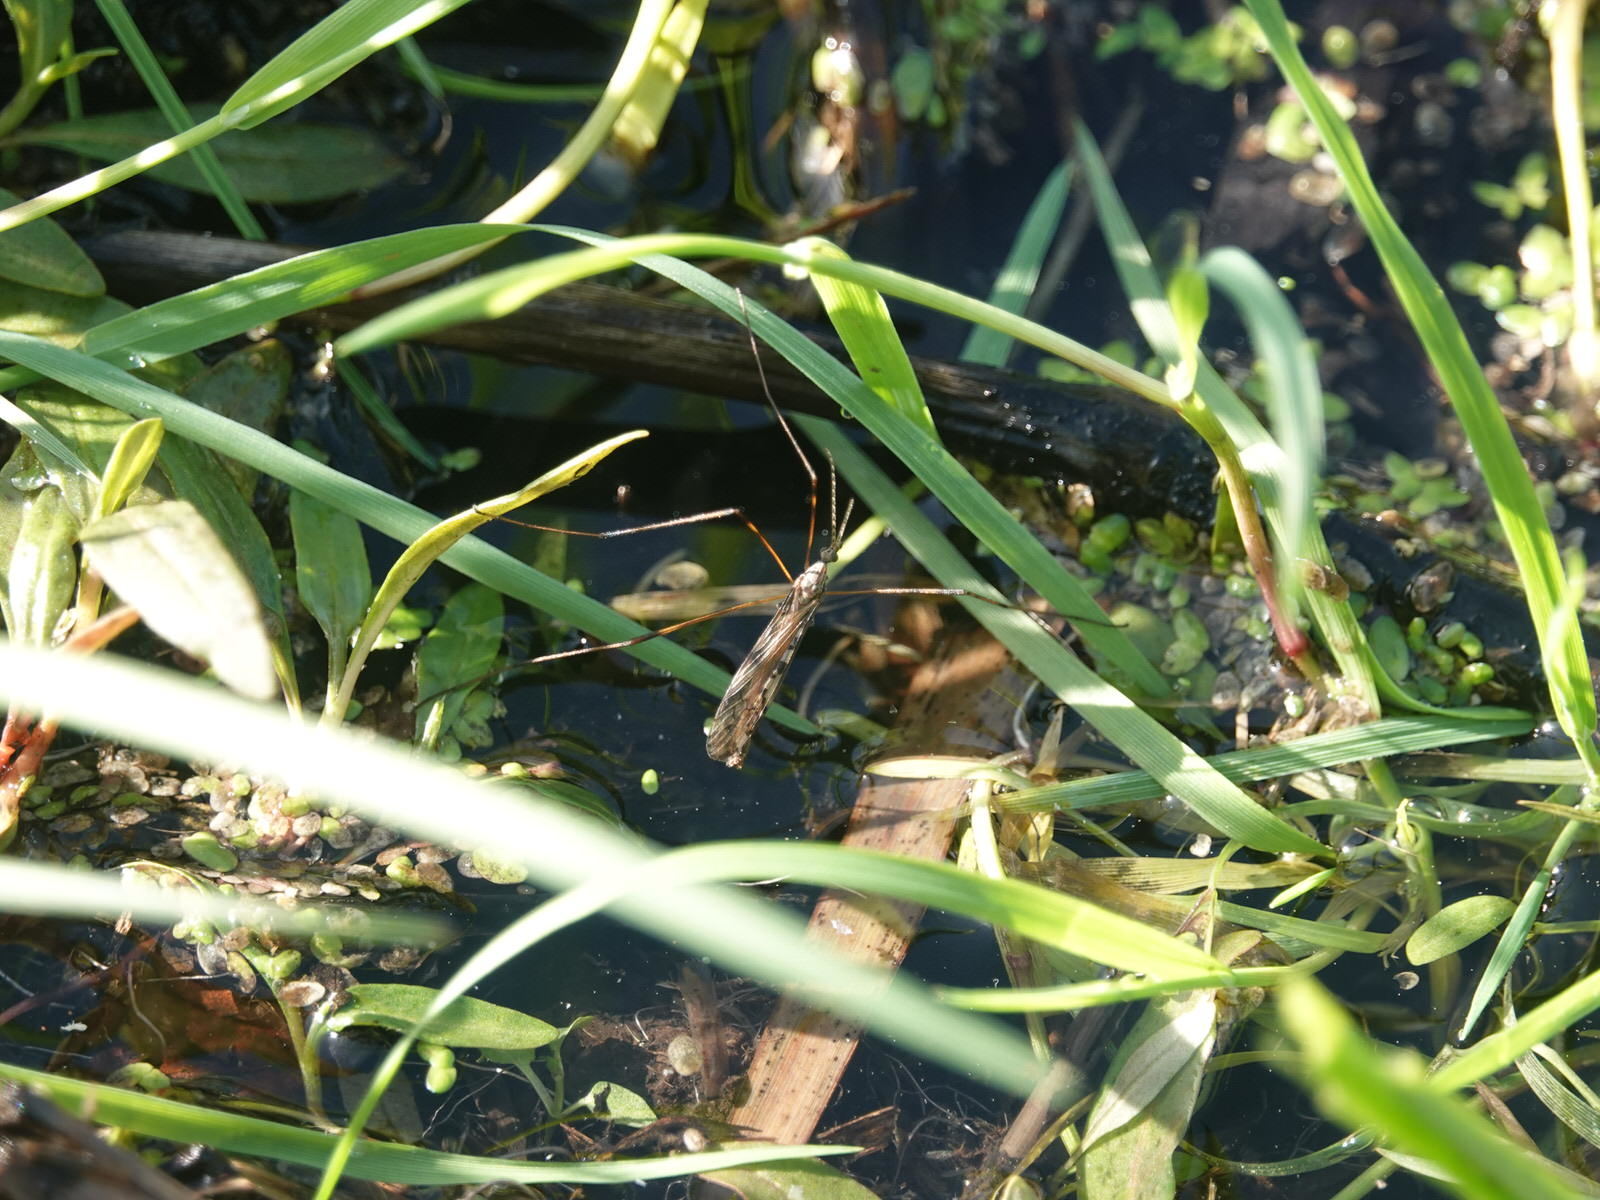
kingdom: Animalia
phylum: Arthropoda
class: Insecta
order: Diptera
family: Limoniidae
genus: Paralimnophila
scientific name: Paralimnophila skusei
